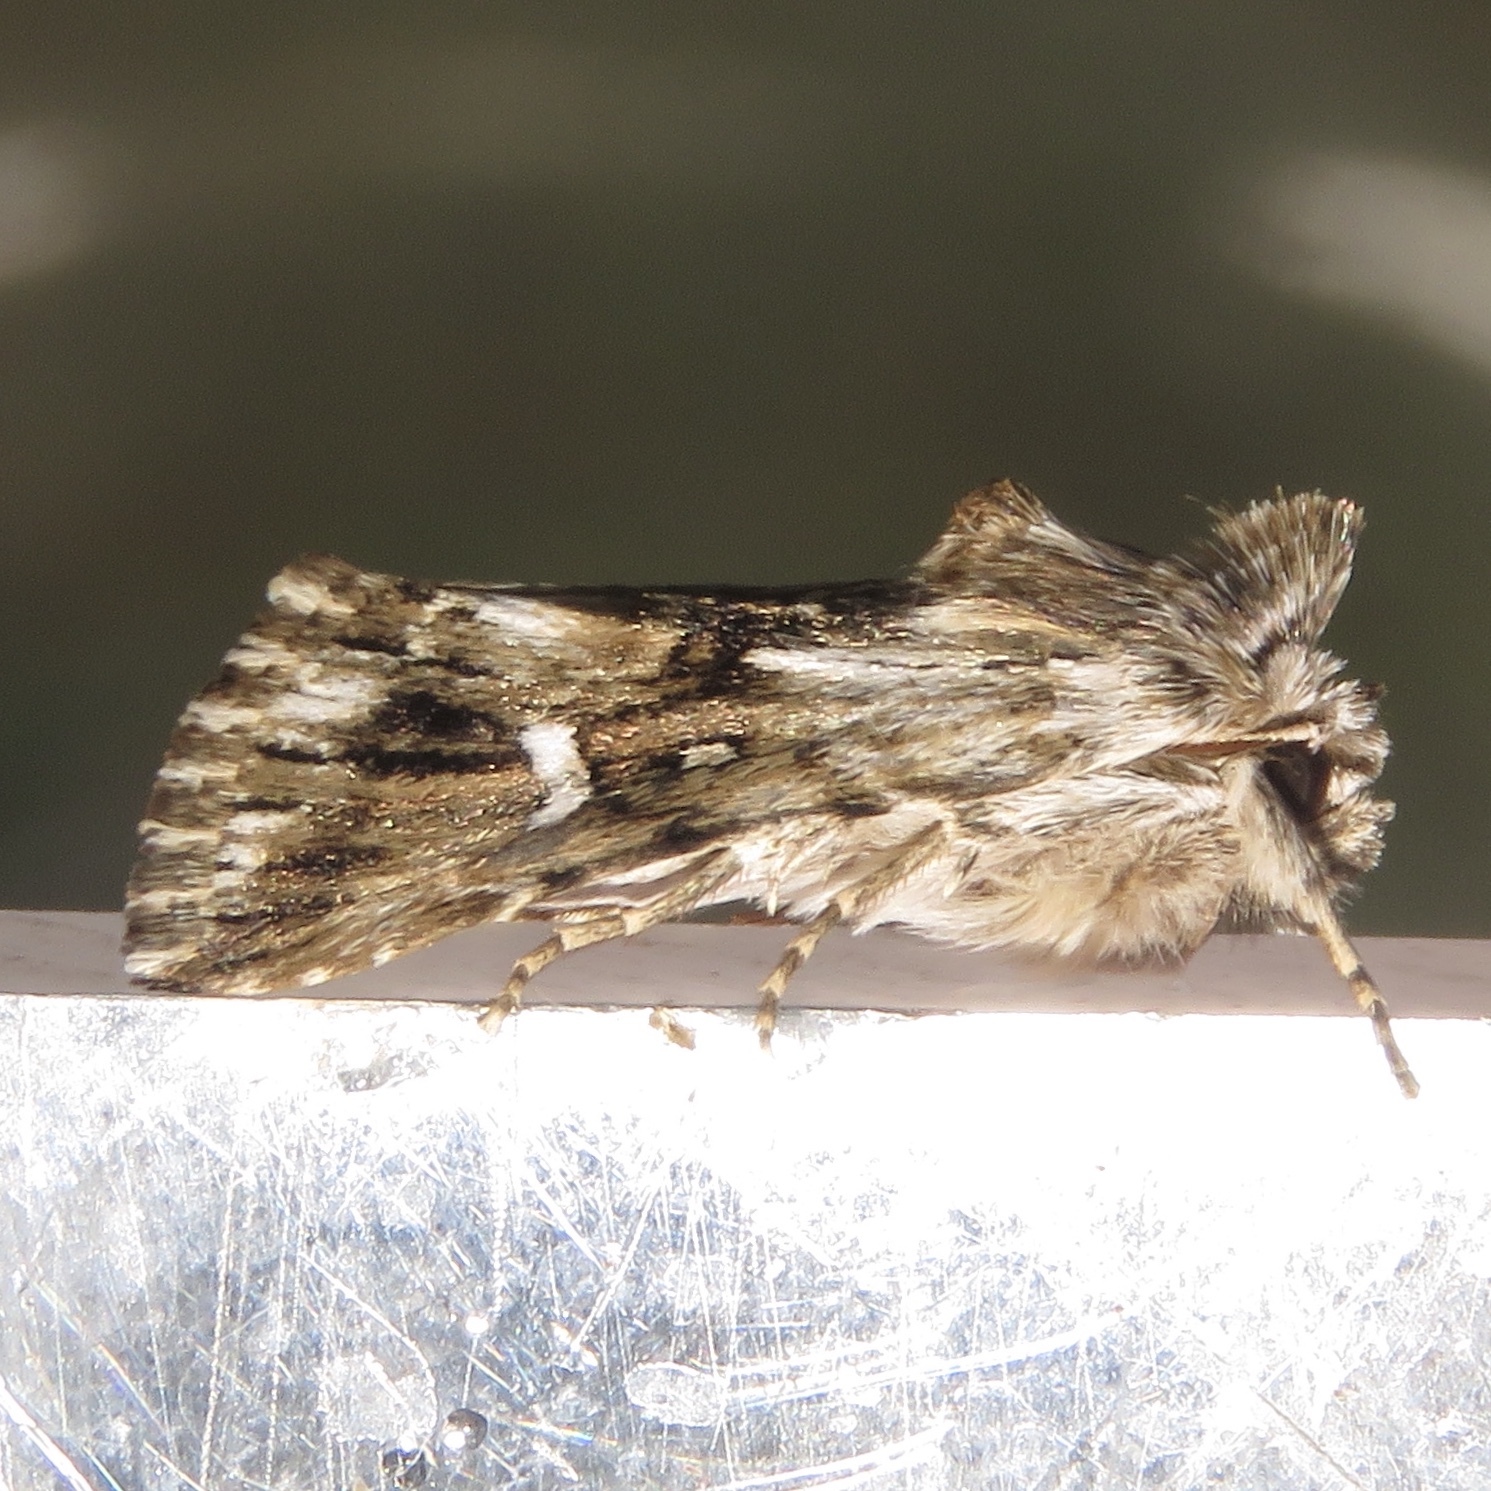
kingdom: Animalia
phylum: Arthropoda
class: Insecta
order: Lepidoptera
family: Noctuidae
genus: Calophasia
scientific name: Calophasia lunula
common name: Toadflax brocade
